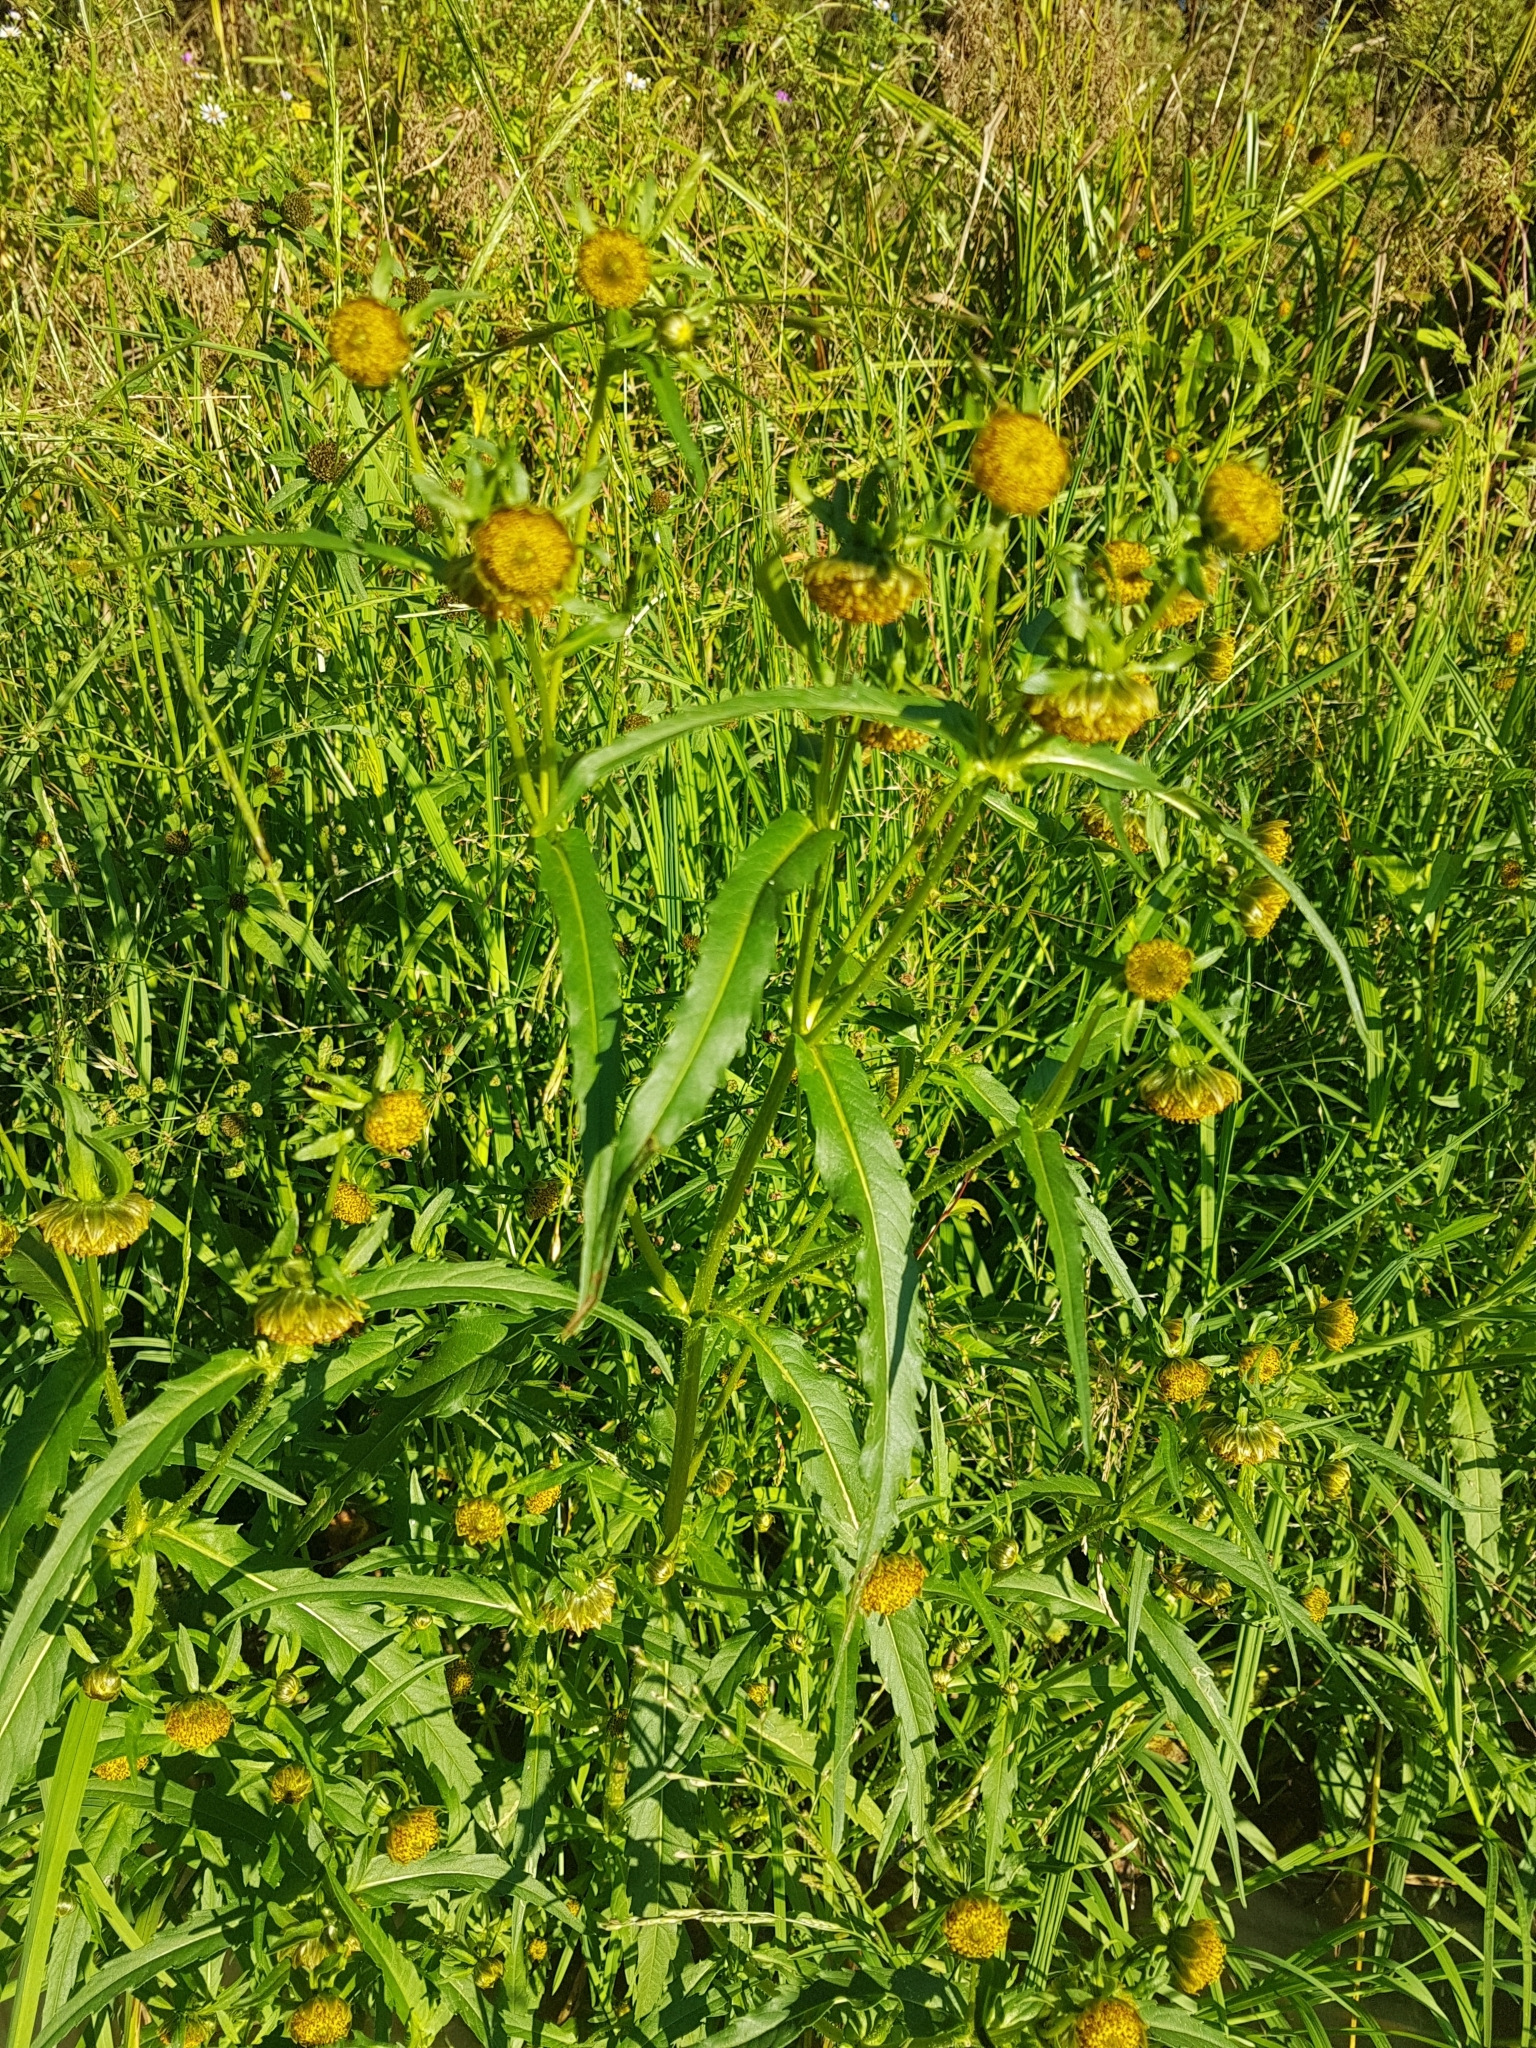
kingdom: Plantae
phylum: Tracheophyta
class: Magnoliopsida
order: Asterales
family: Asteraceae
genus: Bidens
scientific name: Bidens cernua
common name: Nodding bur-marigold
